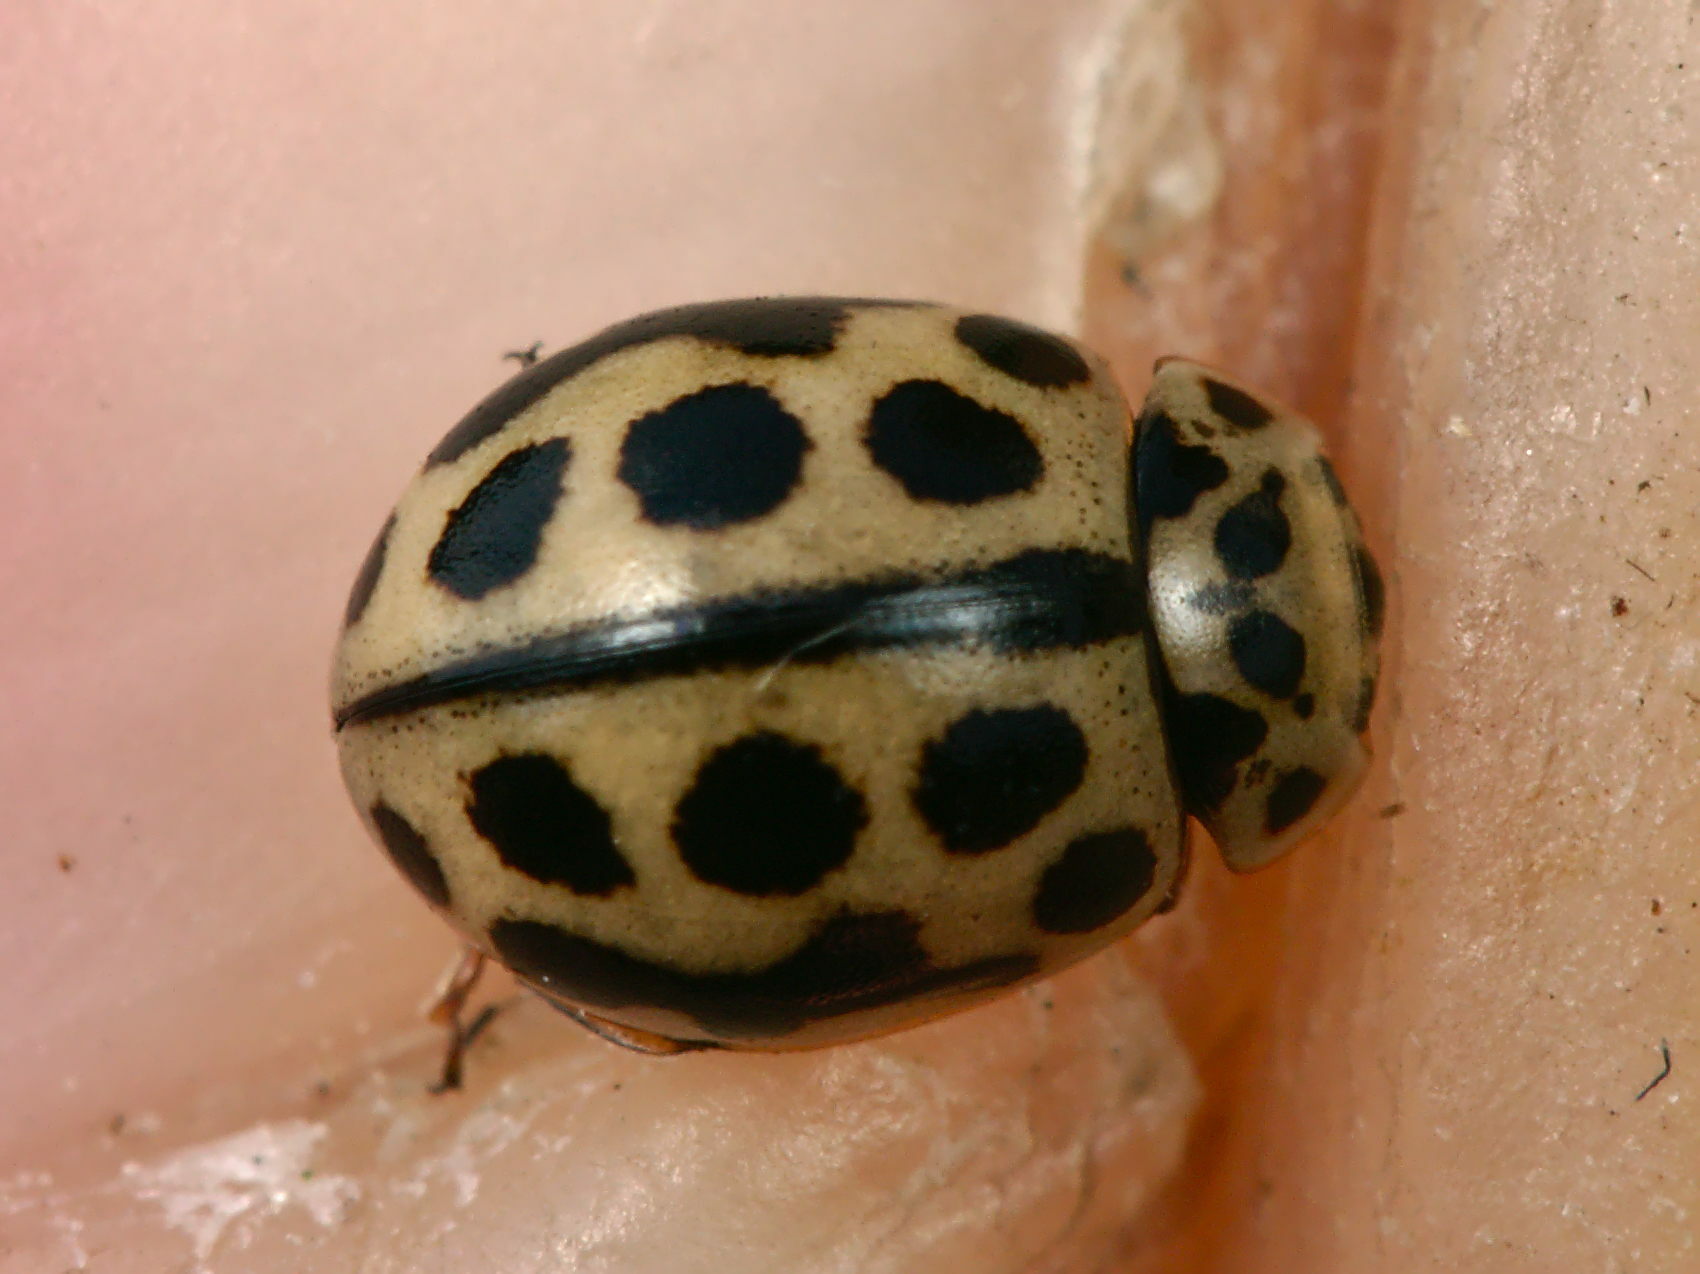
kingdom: Animalia
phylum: Arthropoda
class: Insecta
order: Coleoptera
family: Coccinellidae
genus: Tytthaspis
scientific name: Tytthaspis sedecimpunctata
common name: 16-spot ladybird
